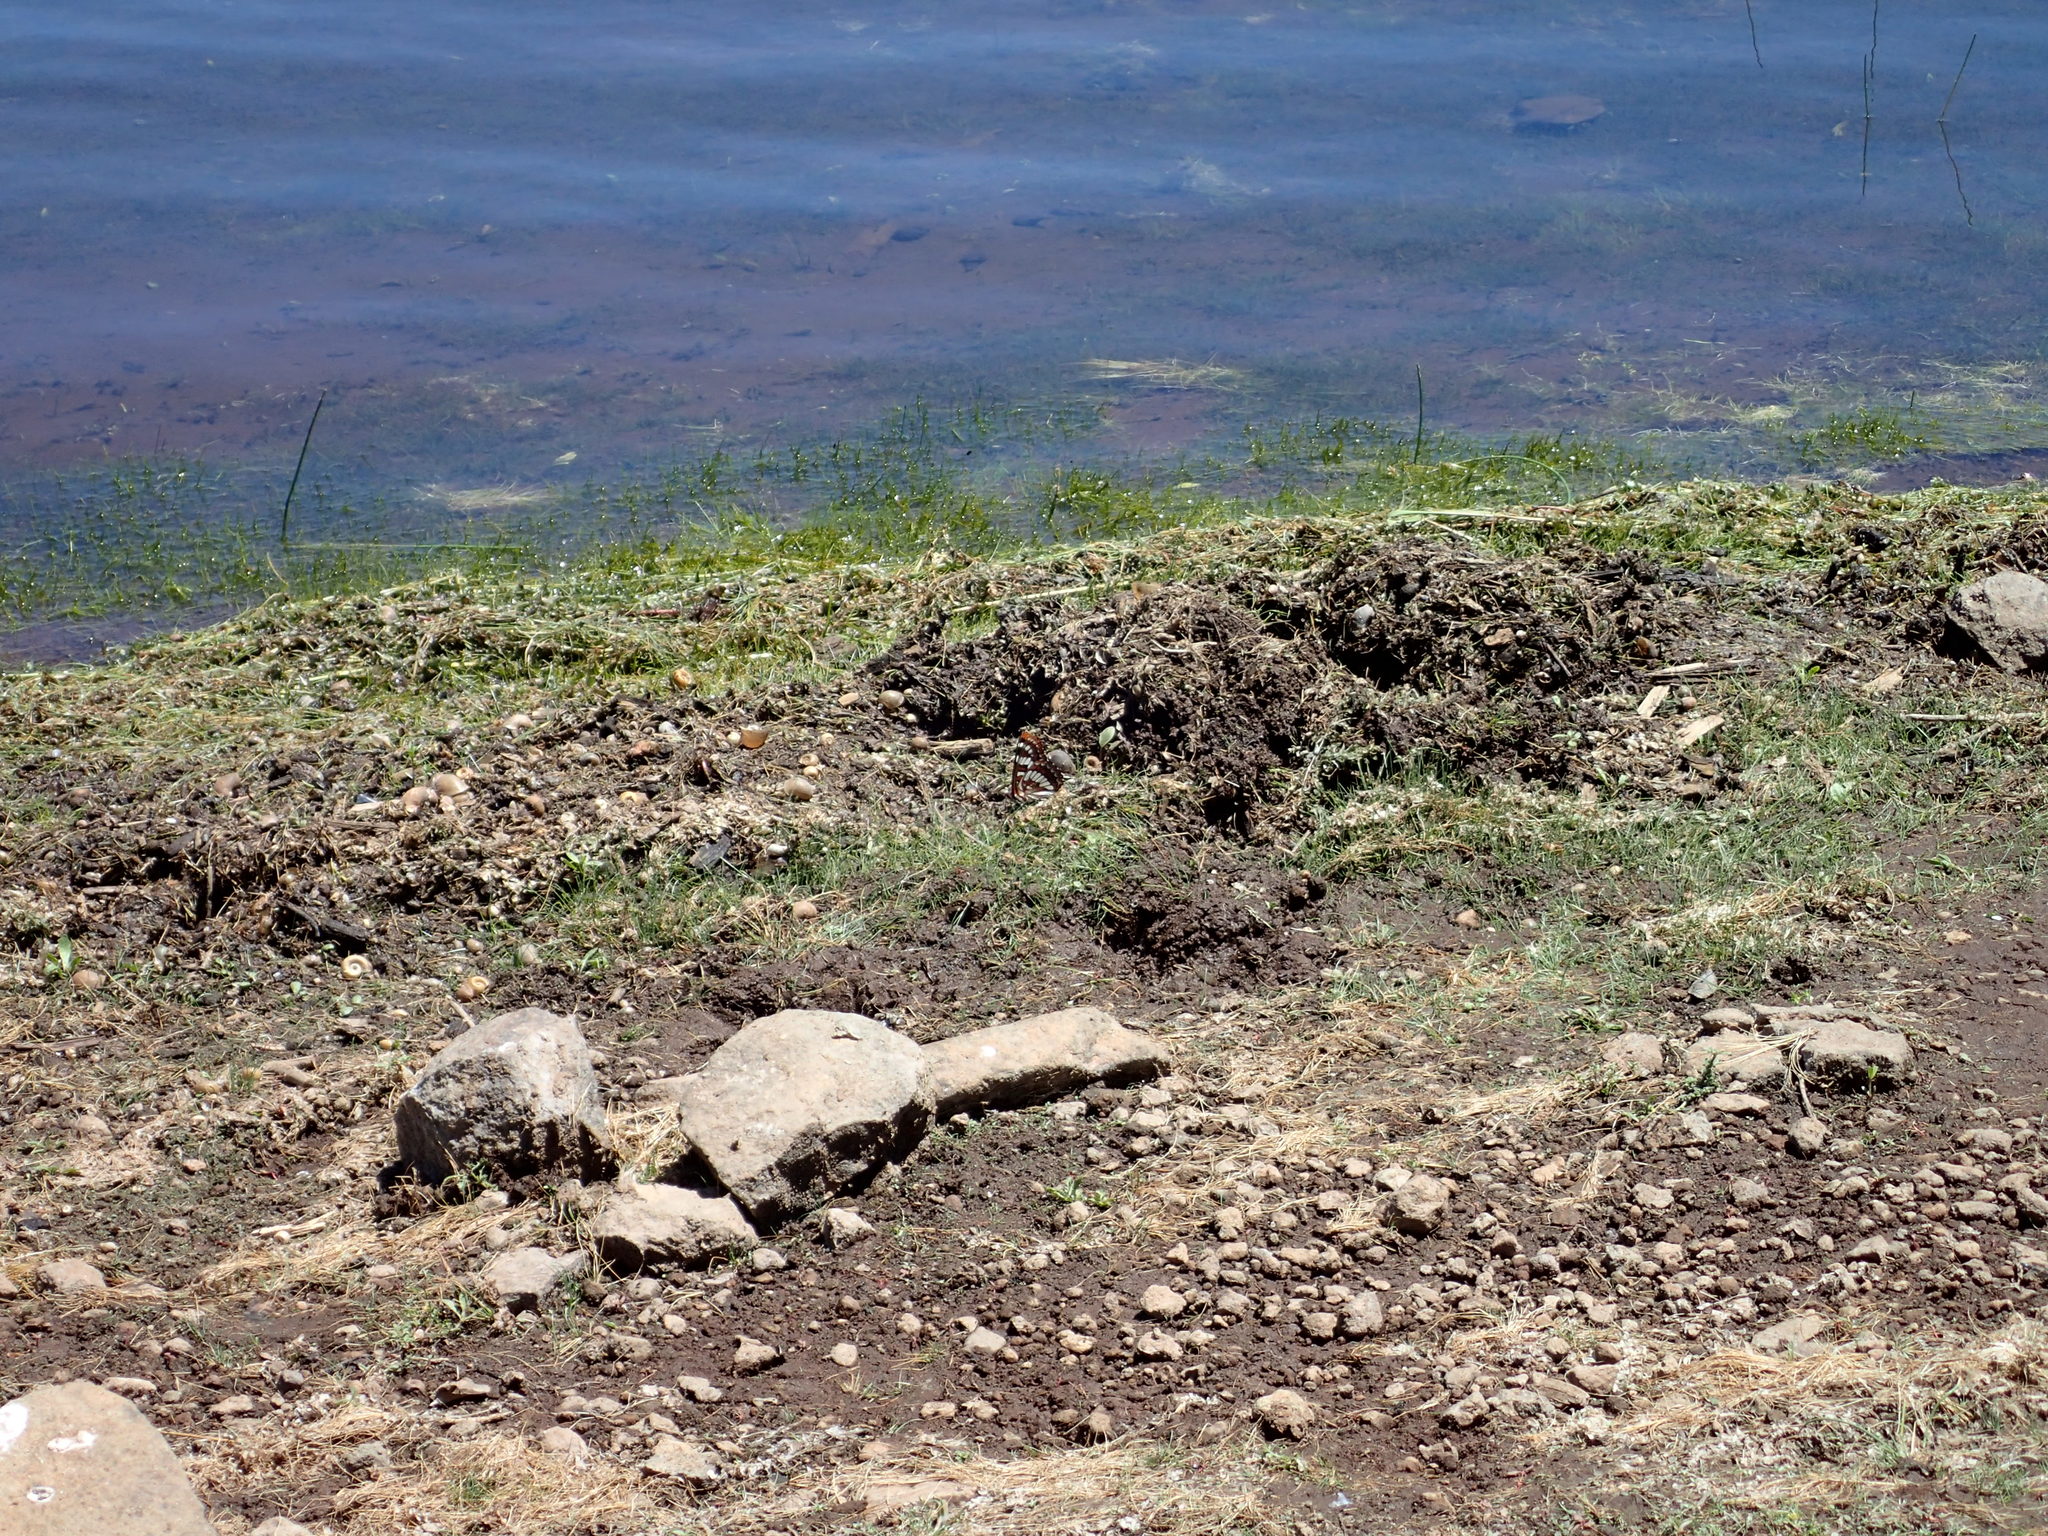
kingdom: Animalia
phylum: Arthropoda
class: Insecta
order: Lepidoptera
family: Nymphalidae
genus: Limenitis
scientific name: Limenitis lorquini
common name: Lorquin's admiral
